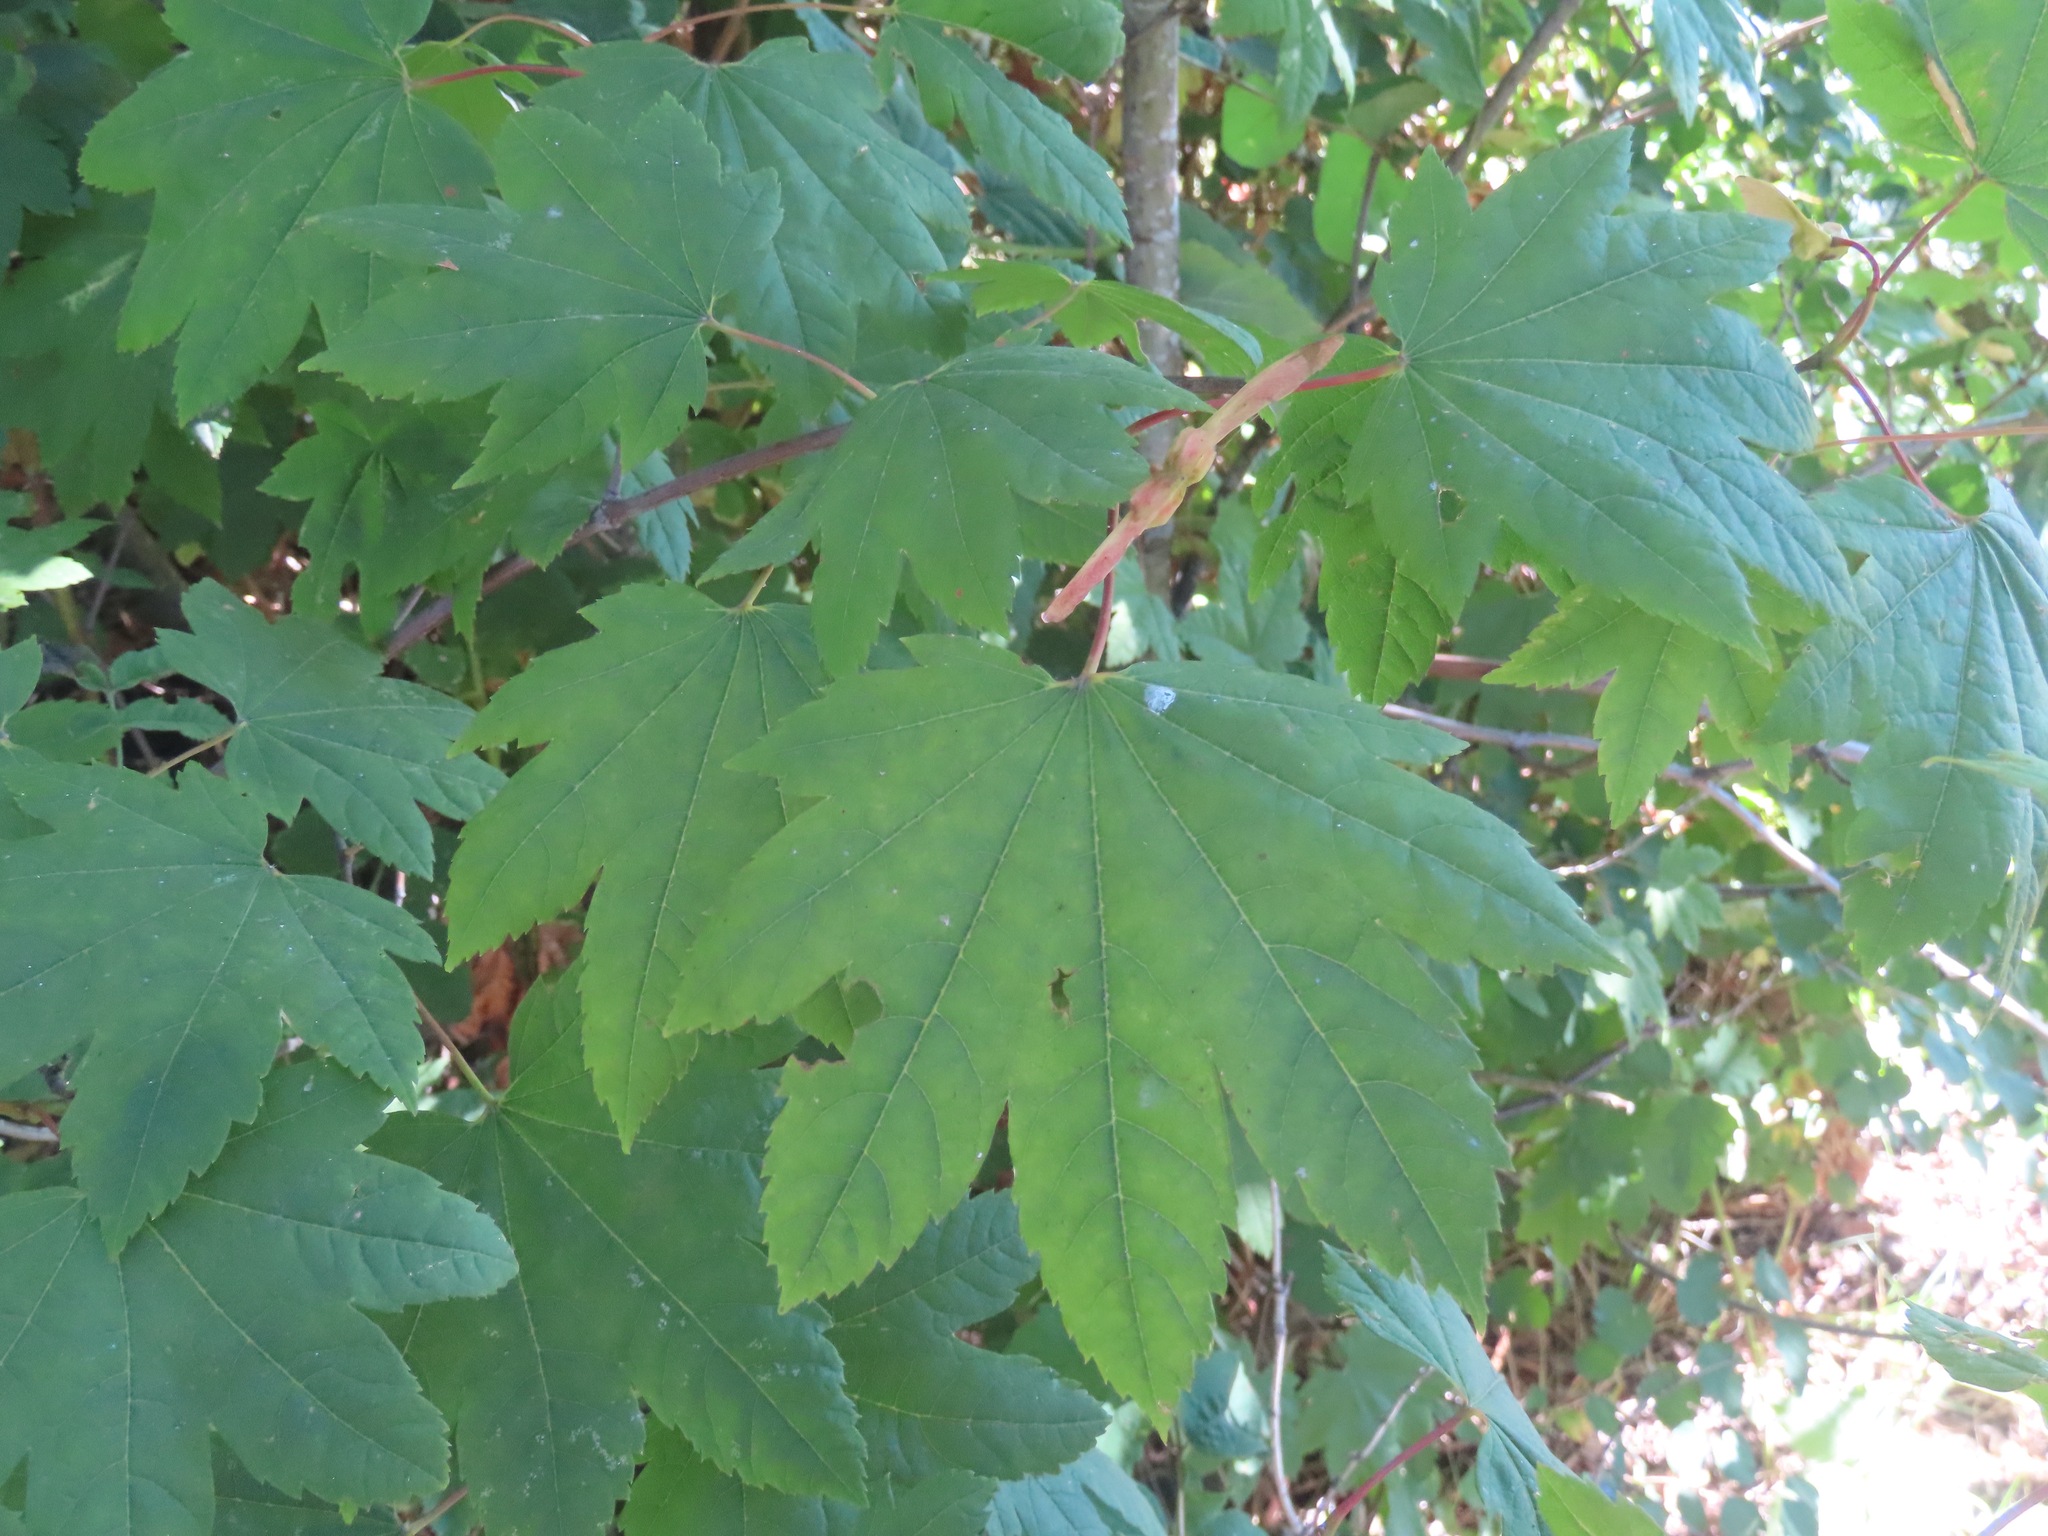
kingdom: Plantae
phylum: Tracheophyta
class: Magnoliopsida
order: Sapindales
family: Sapindaceae
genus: Acer
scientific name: Acer circinatum
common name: Vine maple
